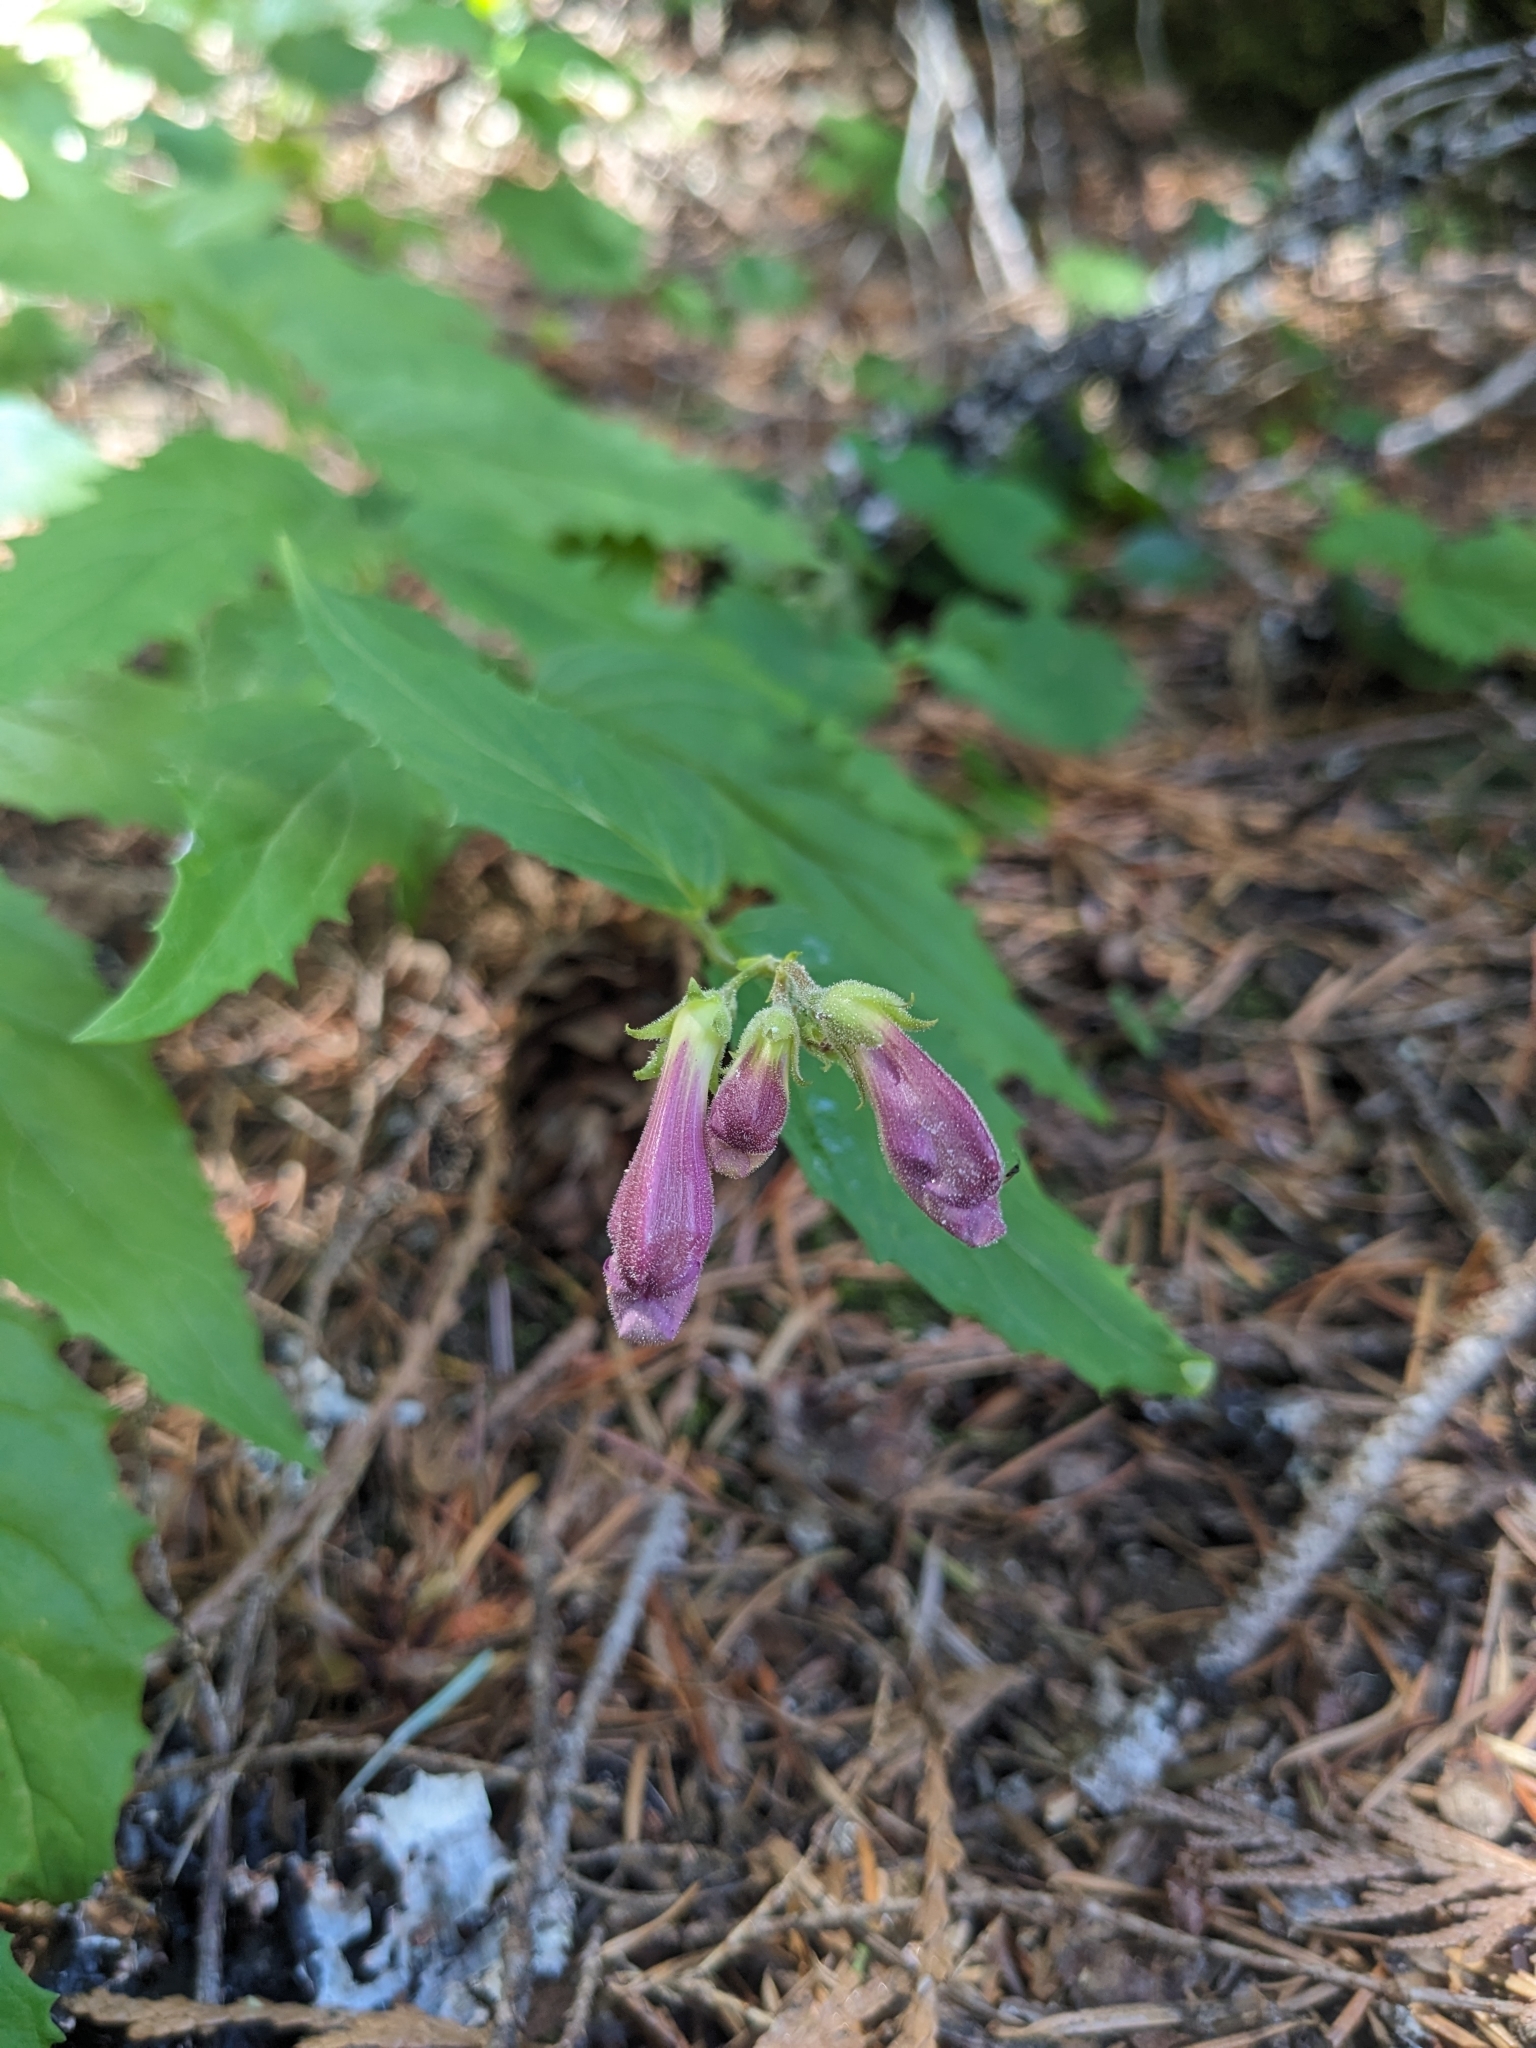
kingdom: Plantae
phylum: Tracheophyta
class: Magnoliopsida
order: Lamiales
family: Plantaginaceae
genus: Nothochelone
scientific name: Nothochelone nemorosa
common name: Woodland beardtongue
